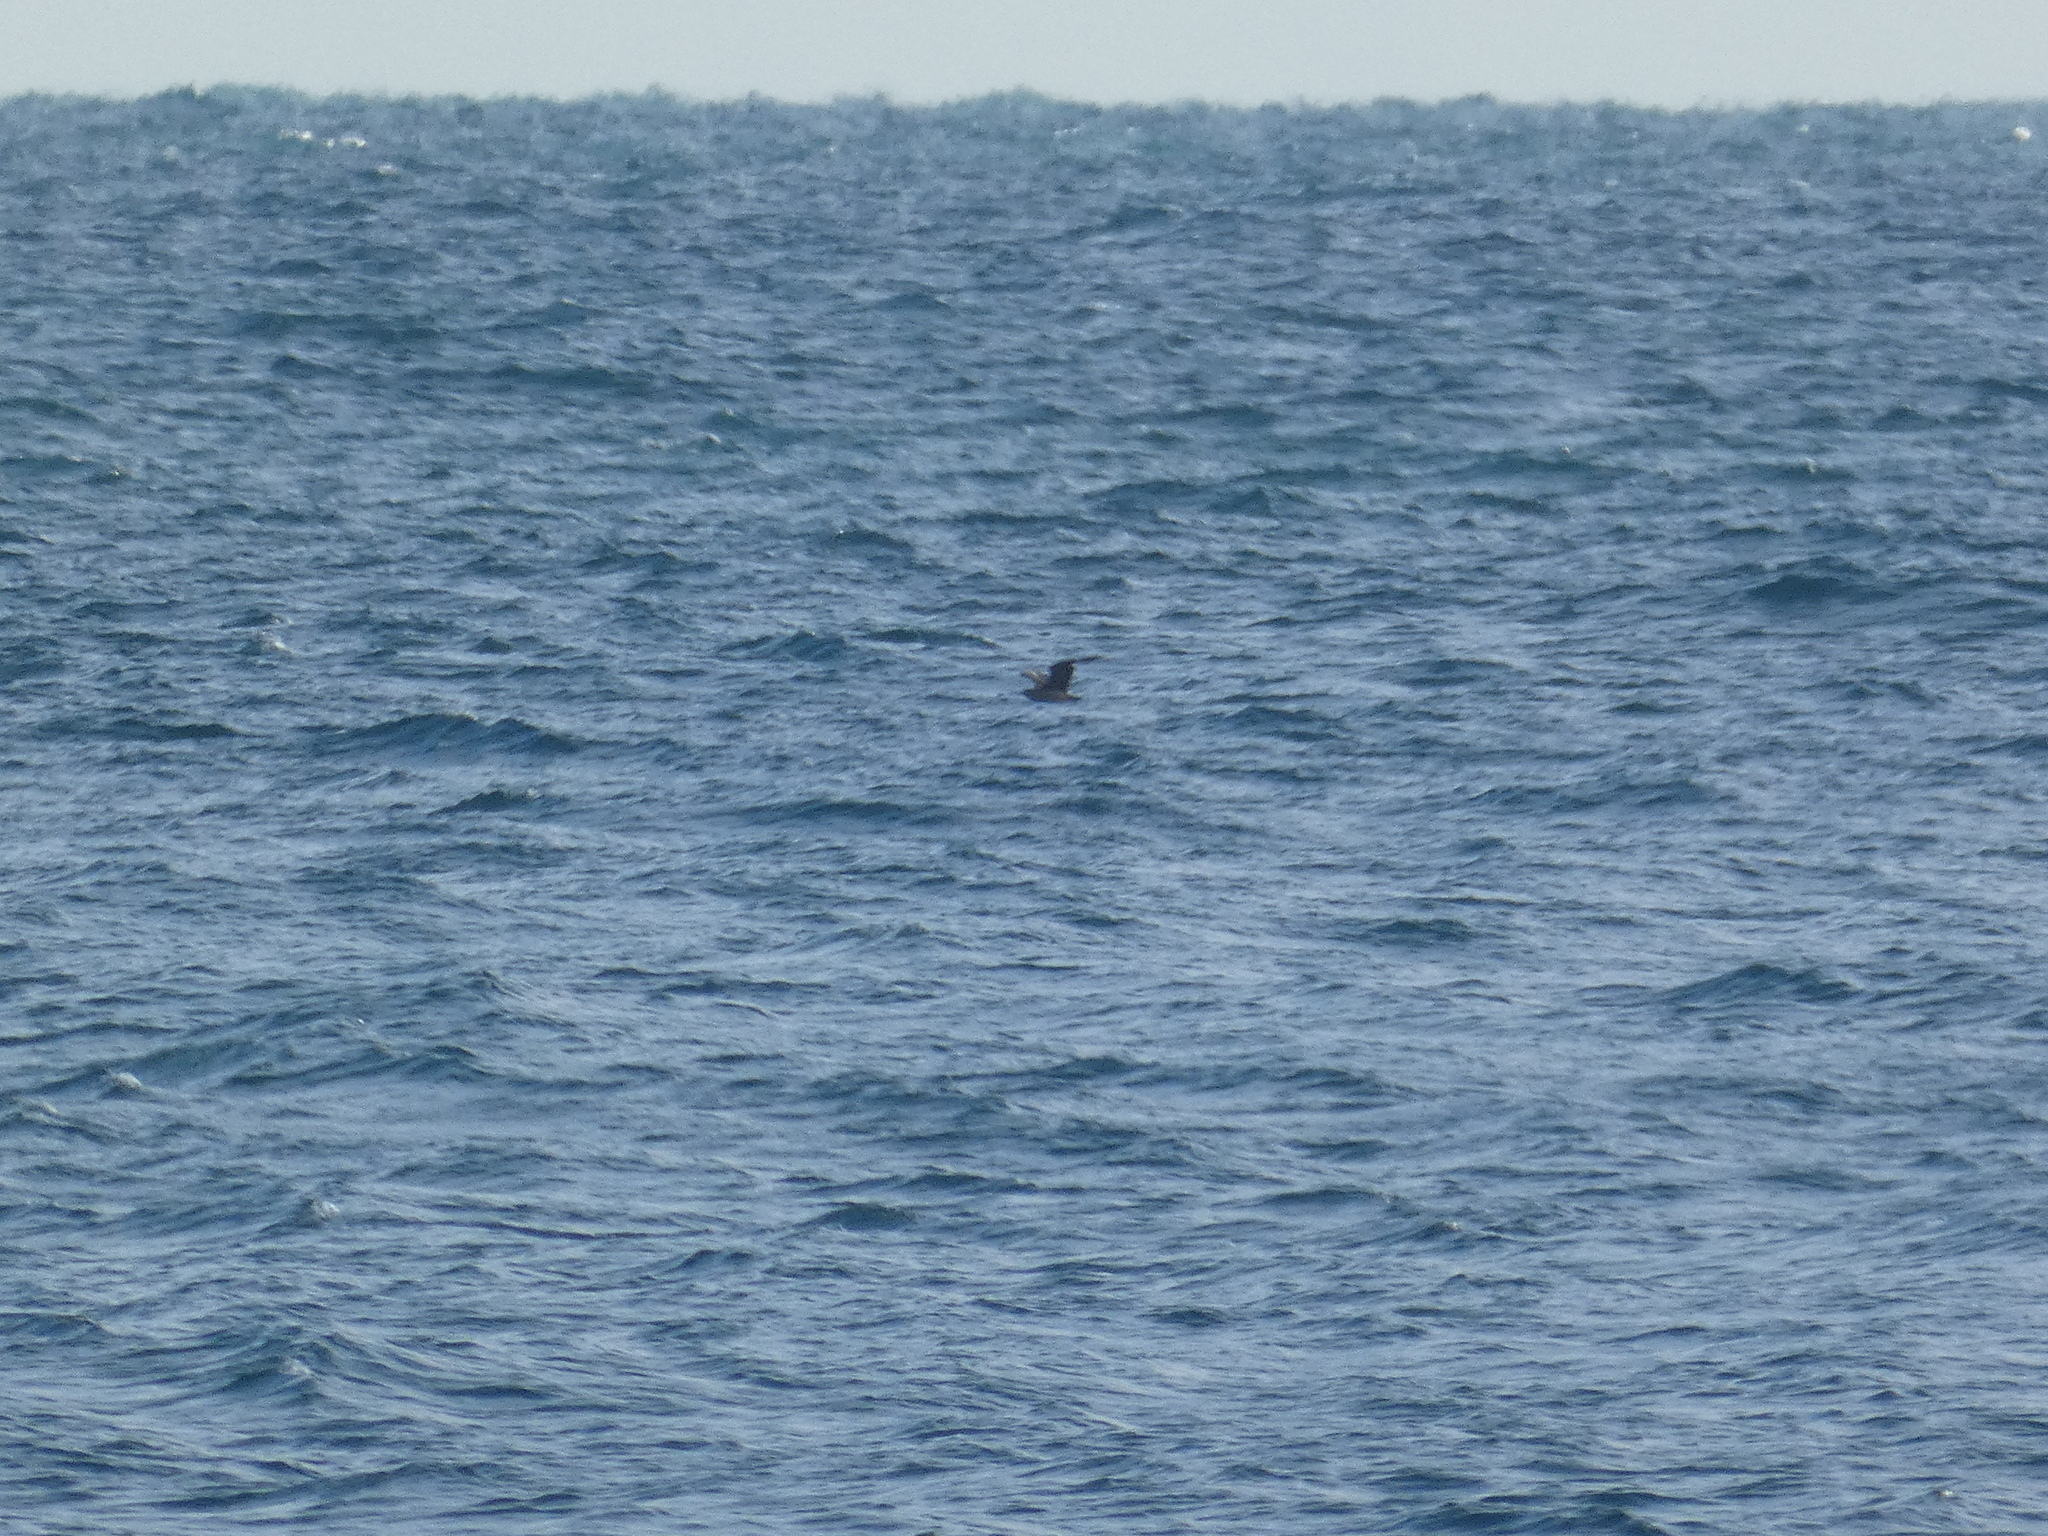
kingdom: Animalia
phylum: Chordata
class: Aves
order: Charadriiformes
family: Stercorariidae
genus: Stercorarius
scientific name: Stercorarius skua
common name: Great skua
